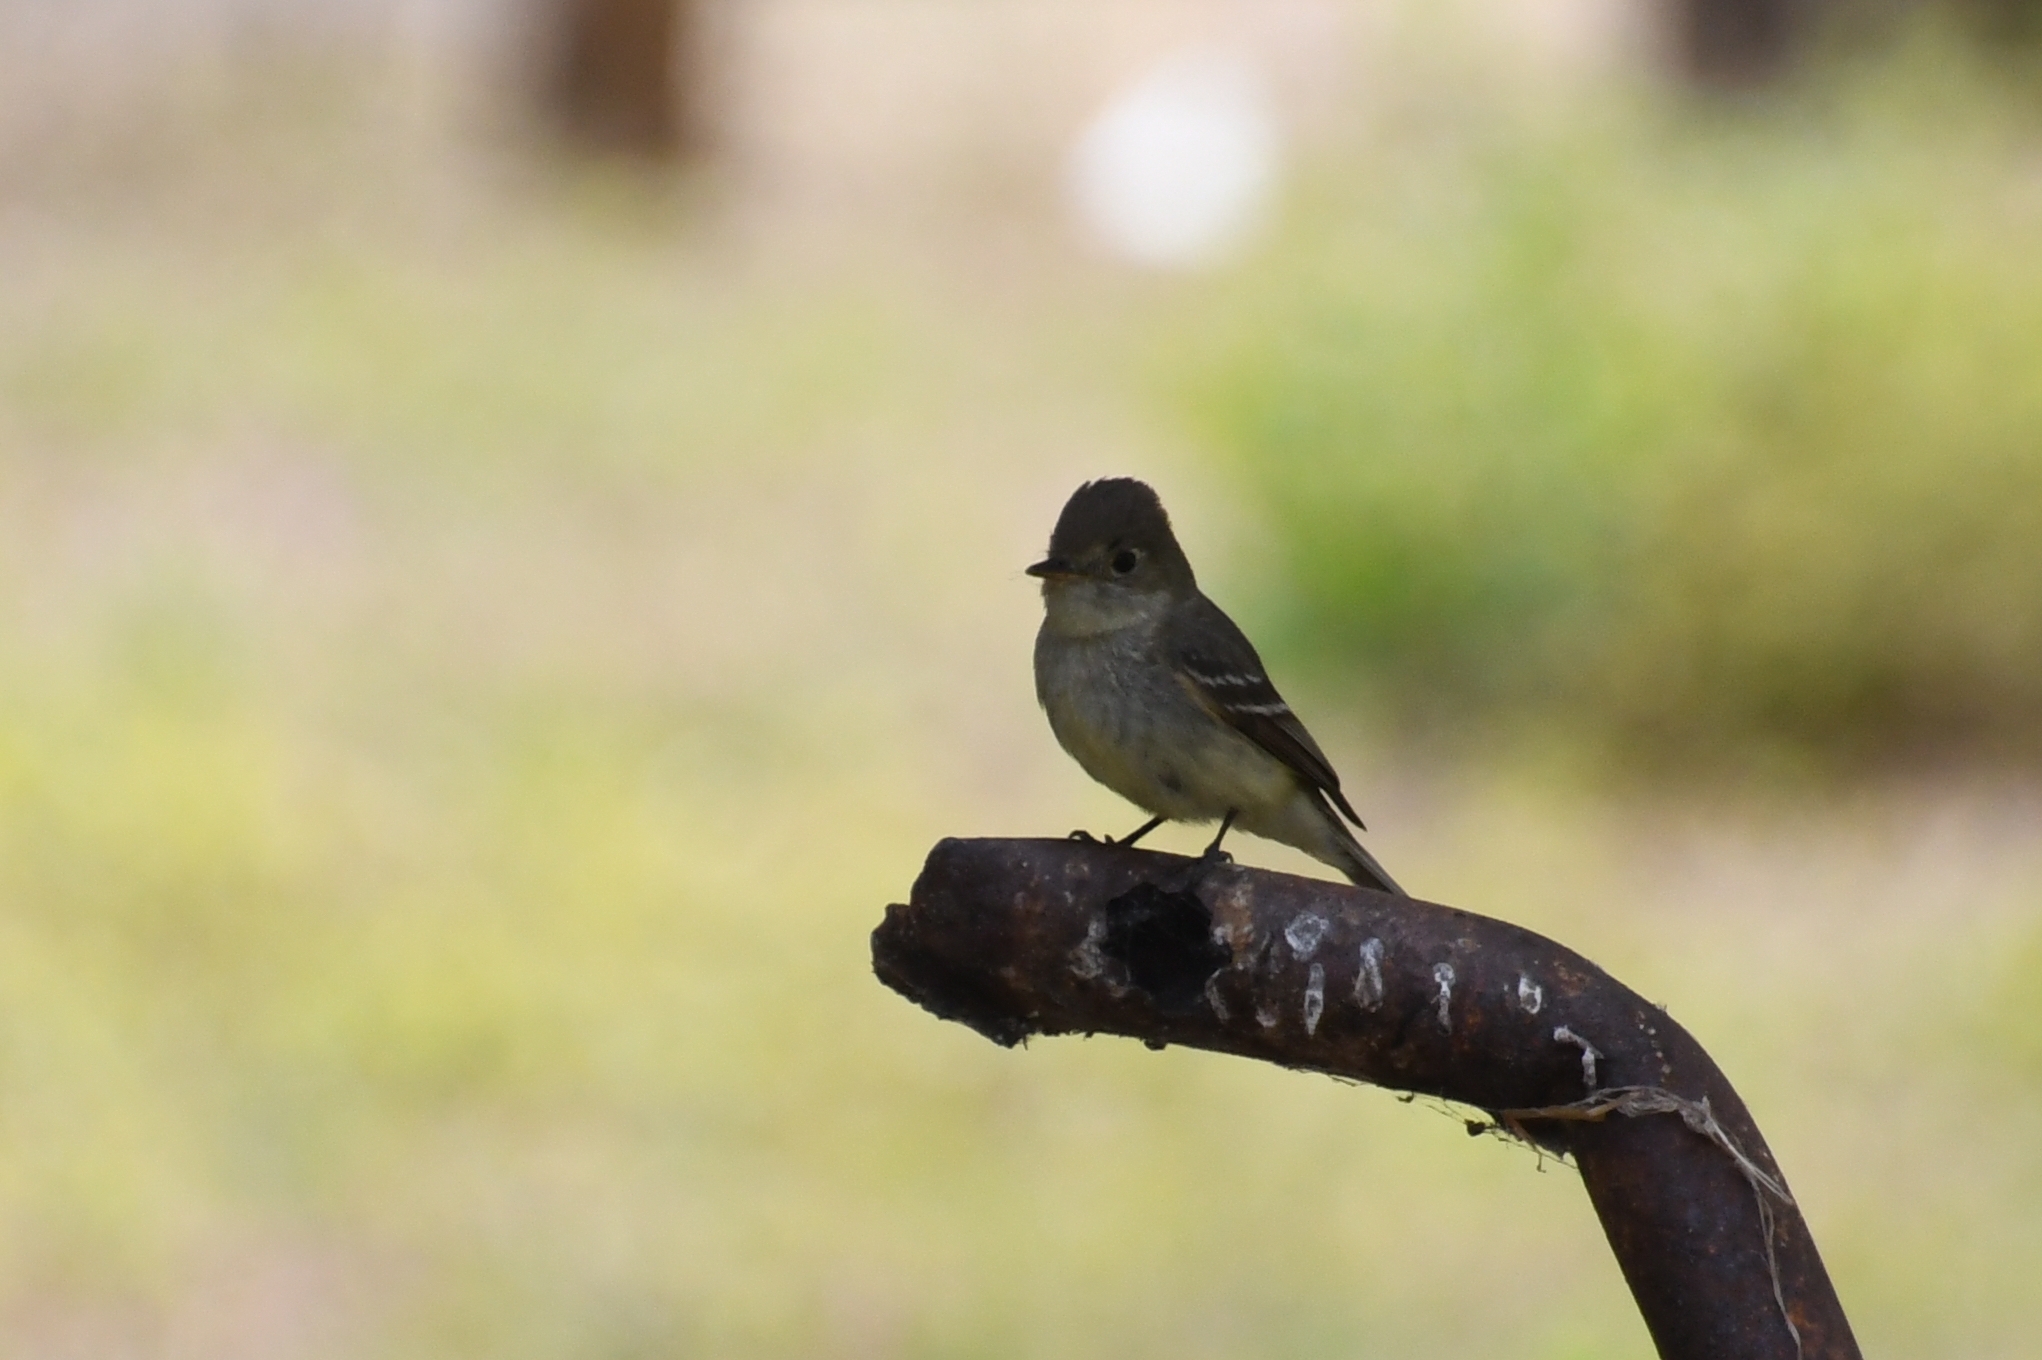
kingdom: Animalia
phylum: Chordata
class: Aves
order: Passeriformes
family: Tyrannidae
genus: Empidonax
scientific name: Empidonax difficilis
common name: Pacific-slope flycatcher
